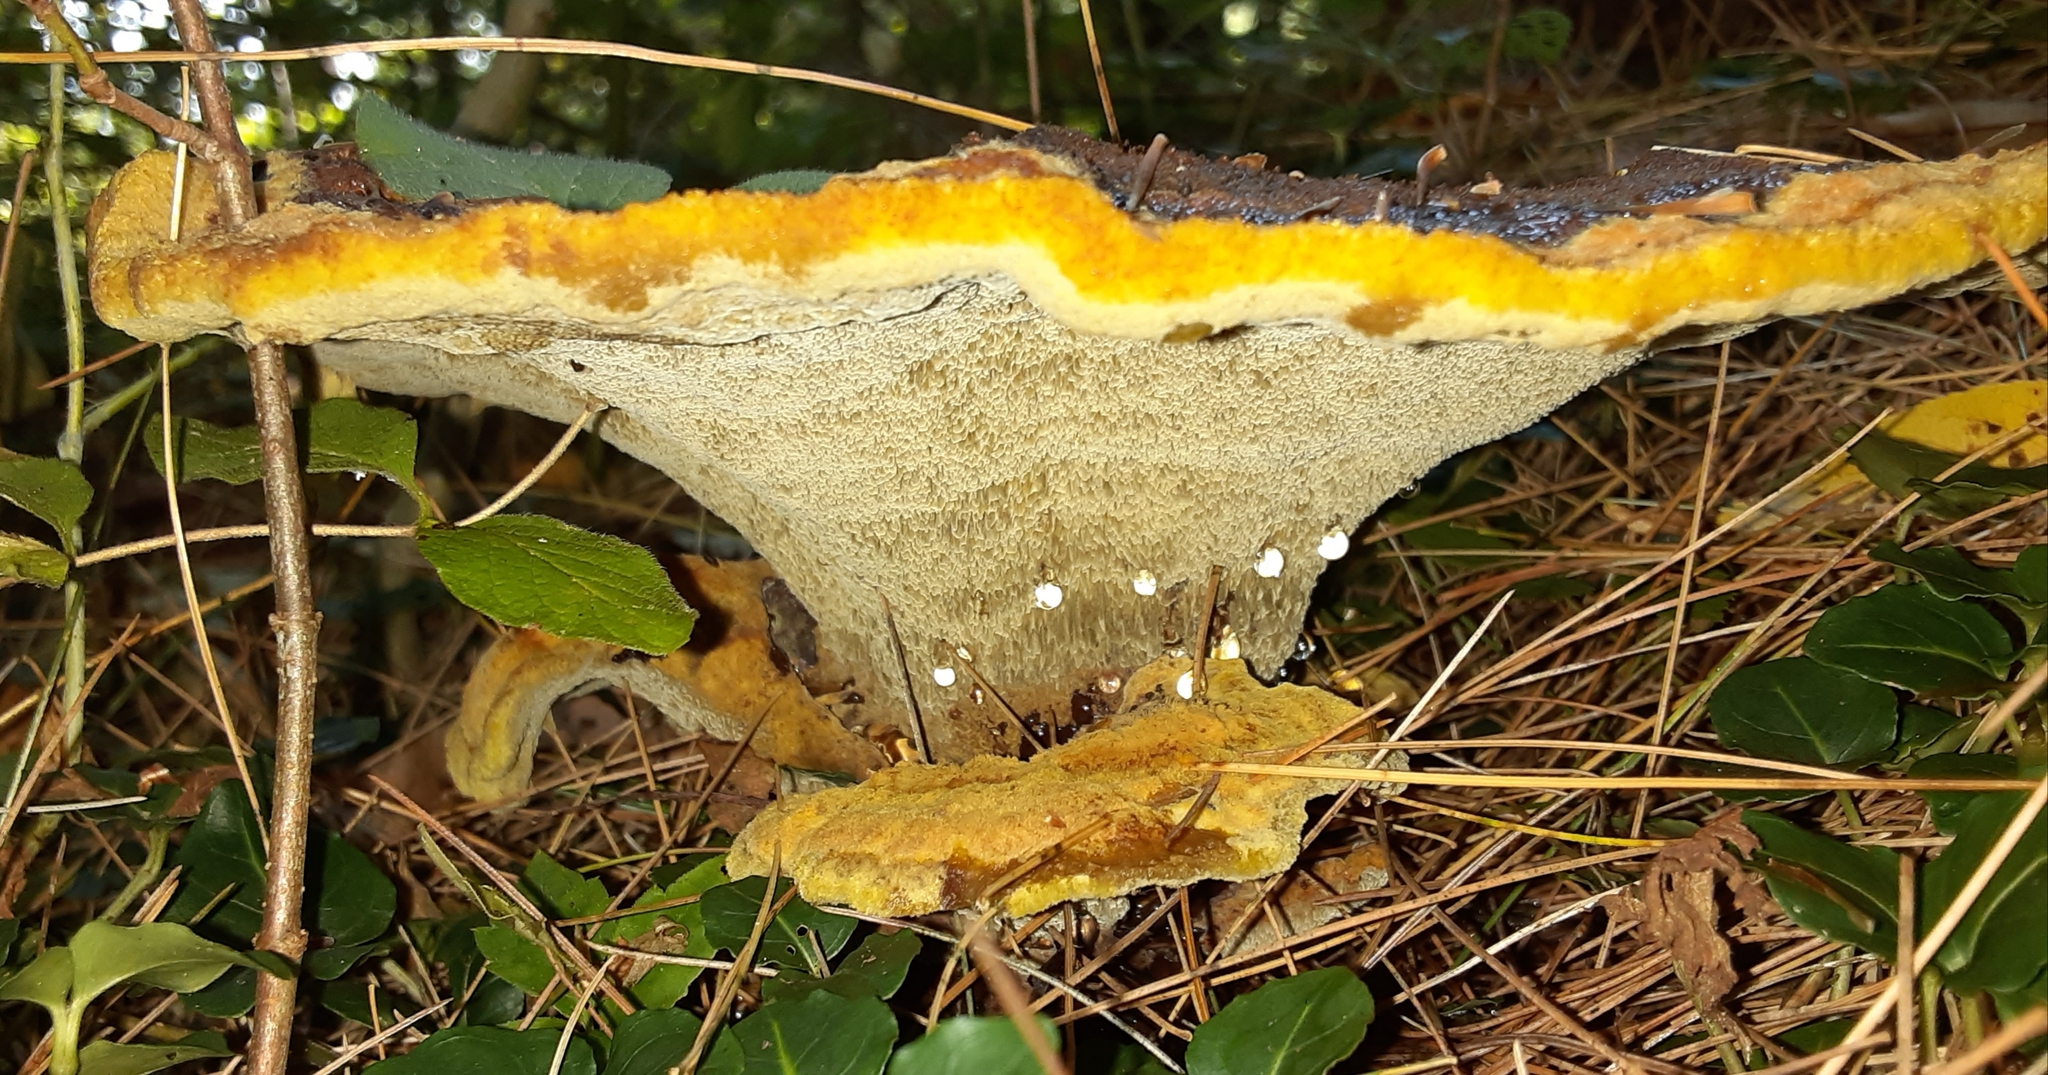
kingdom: Fungi
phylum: Basidiomycota
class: Agaricomycetes
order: Polyporales
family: Laetiporaceae
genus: Phaeolus
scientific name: Phaeolus schweinitzii
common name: Dyer's mazegill
